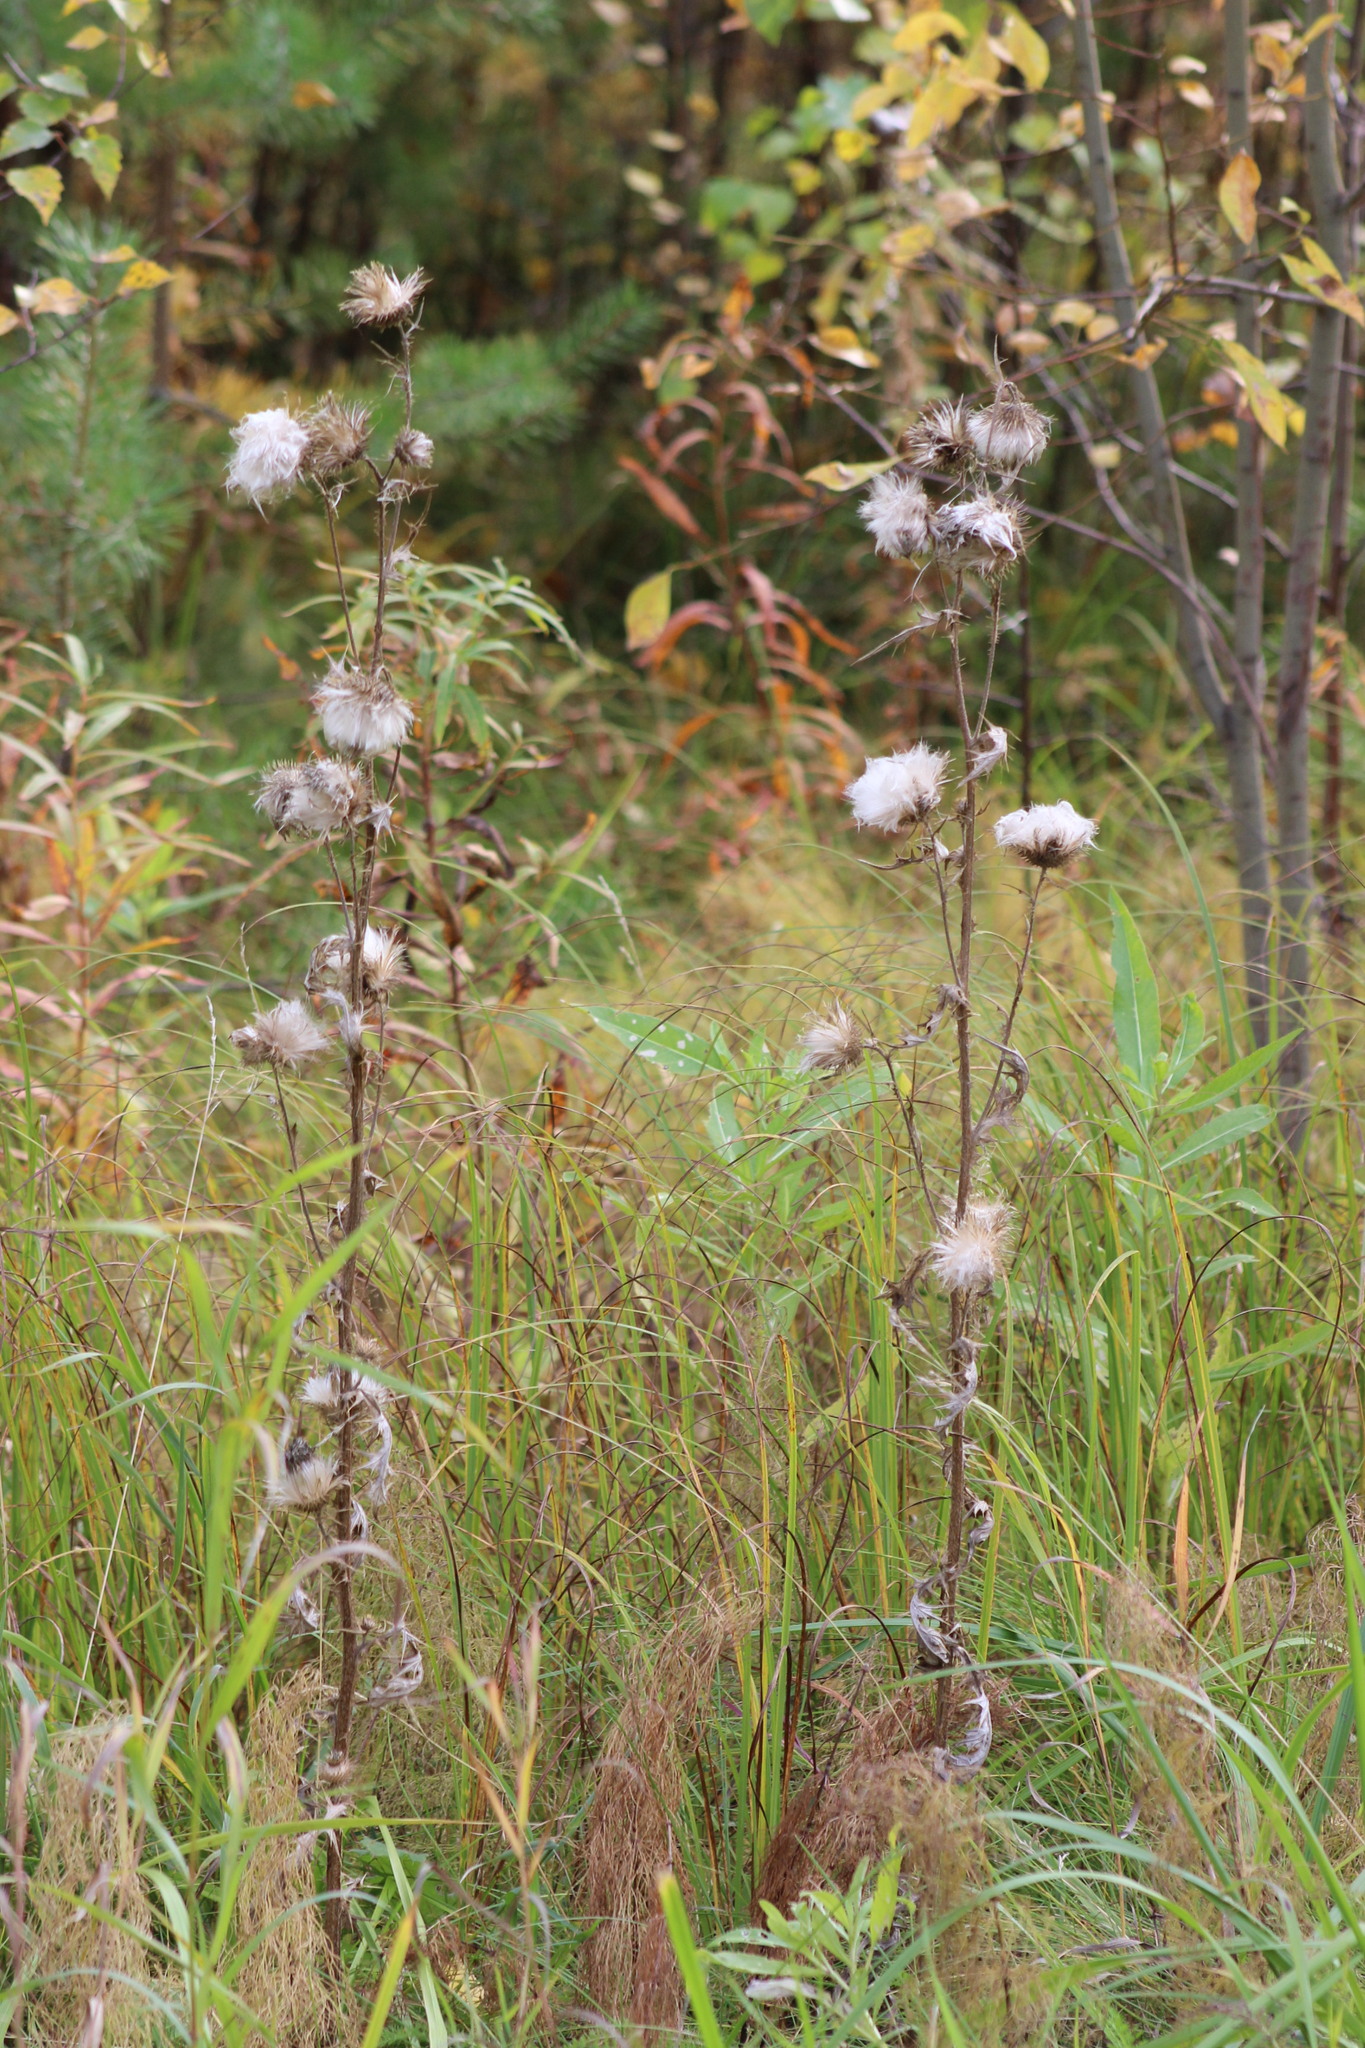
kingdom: Plantae
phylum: Tracheophyta
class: Magnoliopsida
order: Asterales
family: Asteraceae
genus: Cirsium
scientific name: Cirsium arvense
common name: Creeping thistle
